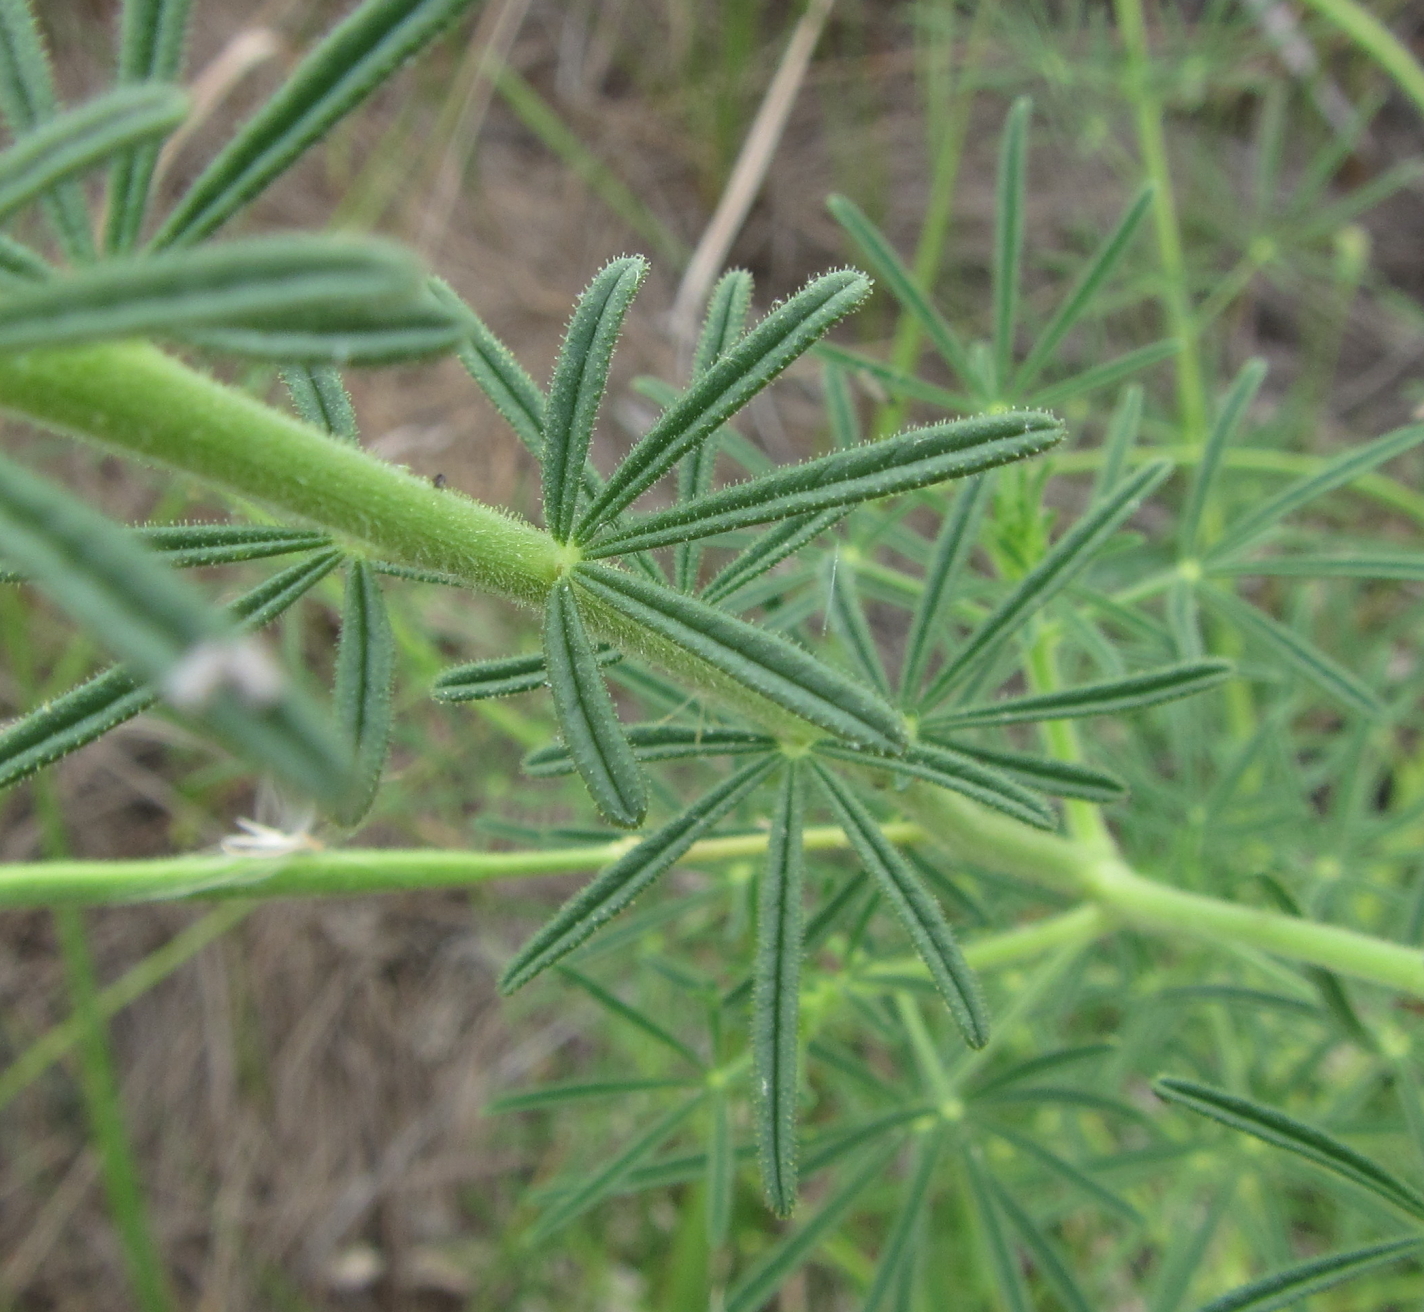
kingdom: Plantae
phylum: Tracheophyta
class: Magnoliopsida
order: Brassicales
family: Cleomaceae
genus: Sieruela
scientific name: Sieruela
